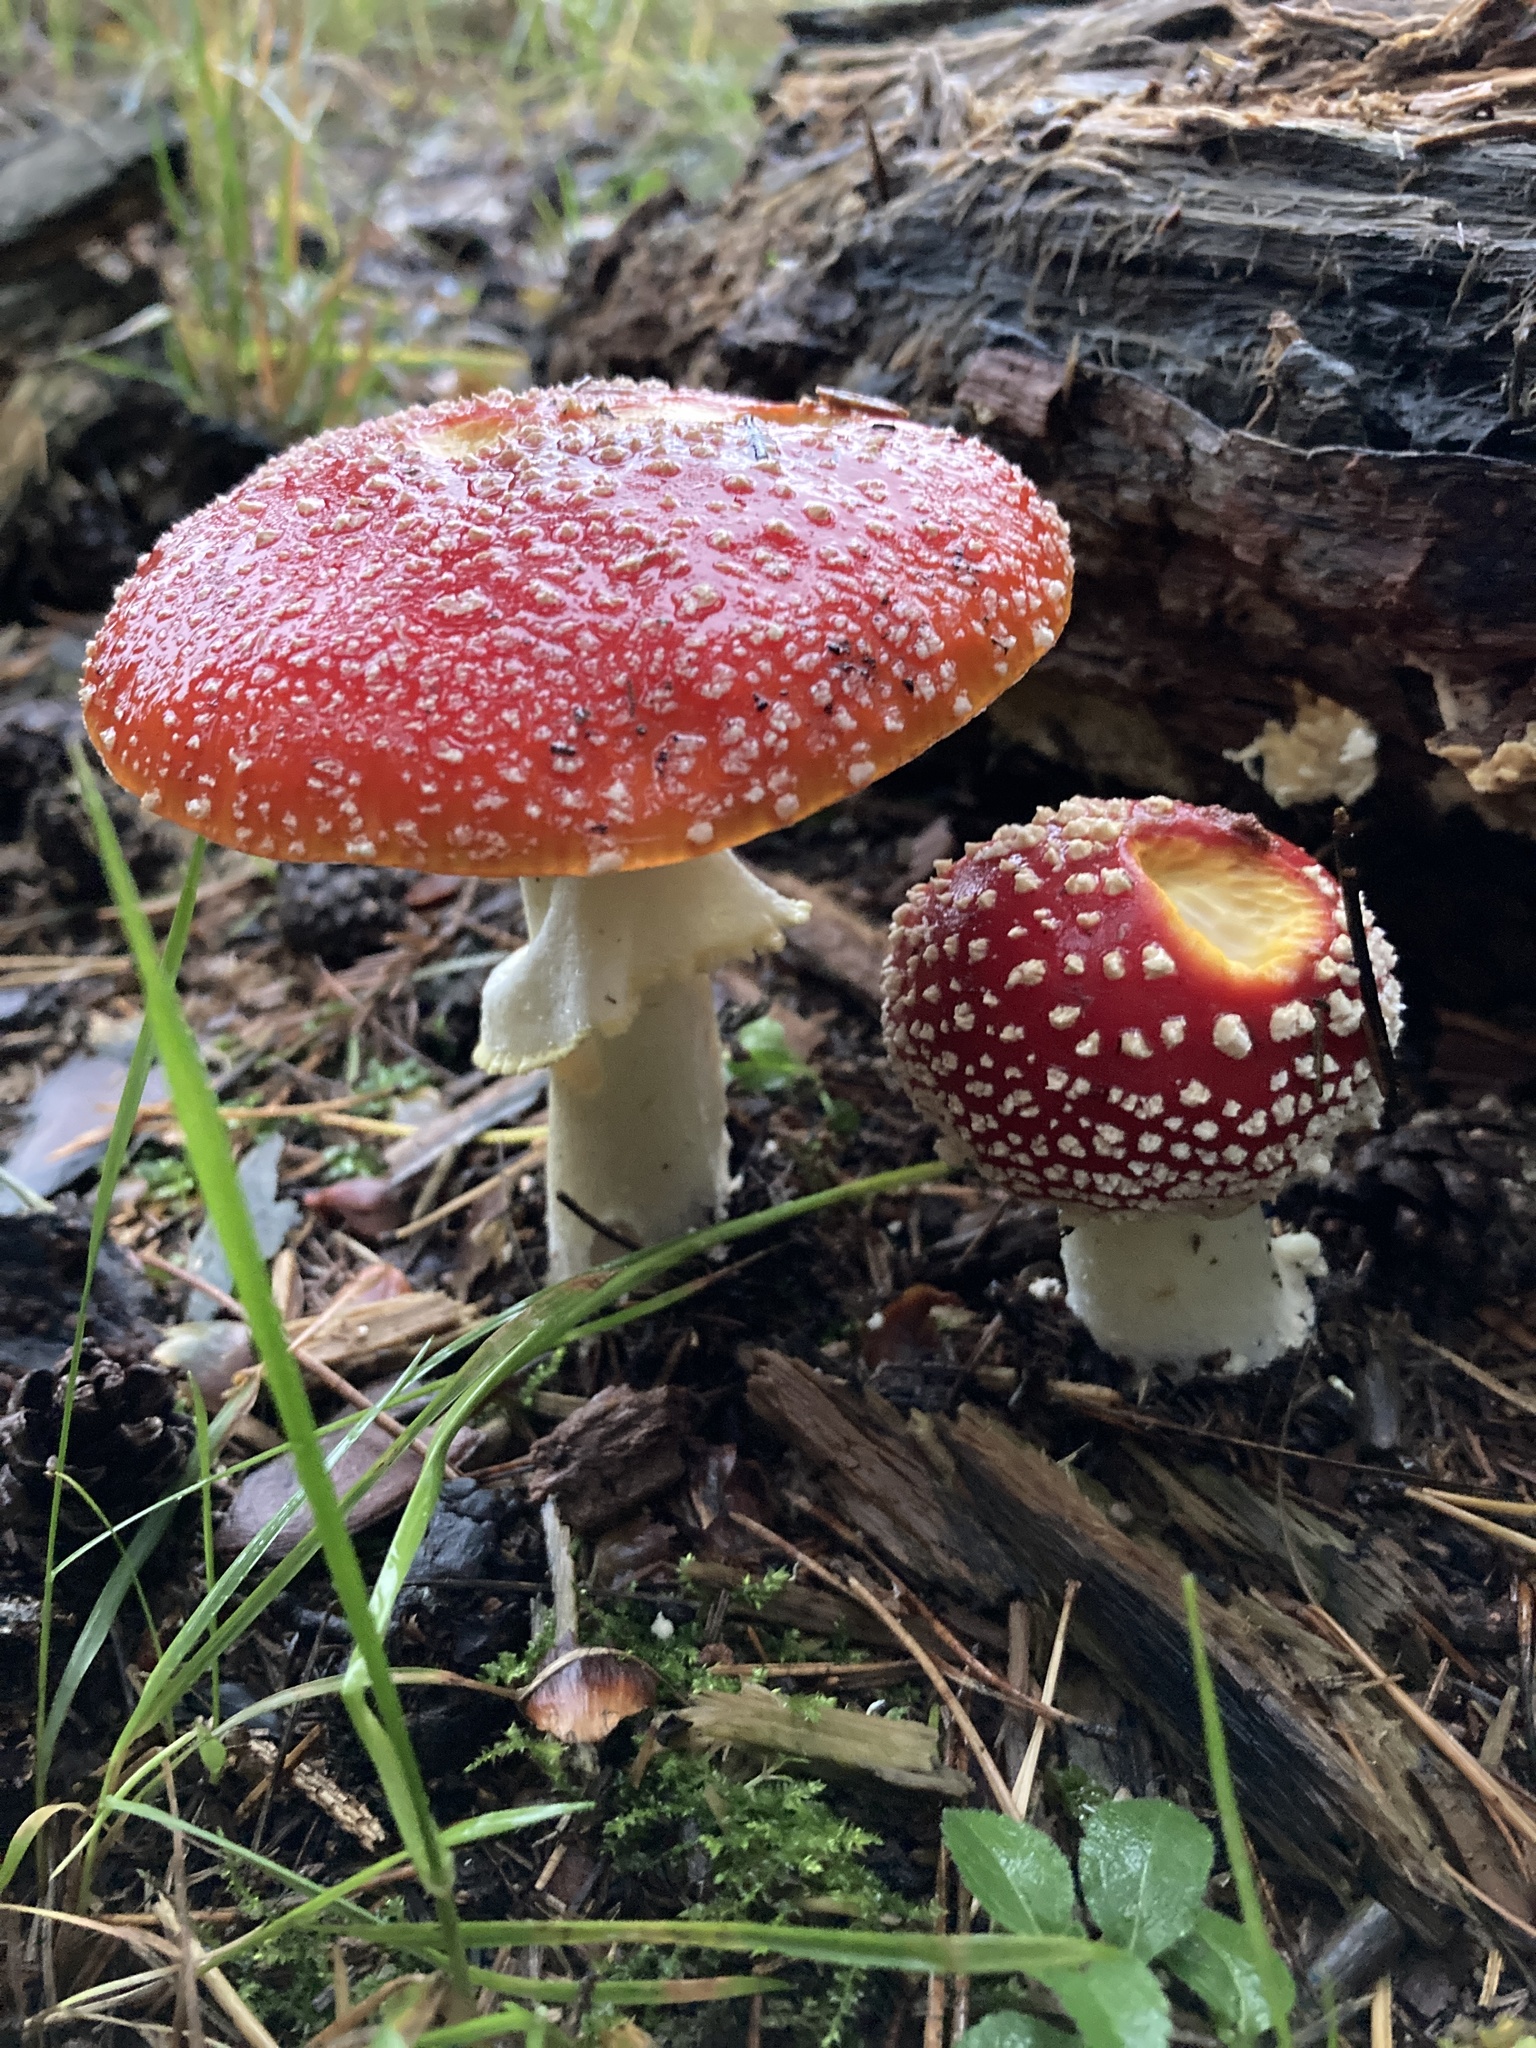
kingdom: Fungi
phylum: Basidiomycota
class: Agaricomycetes
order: Agaricales
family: Amanitaceae
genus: Amanita
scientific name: Amanita muscaria
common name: Fly agaric
